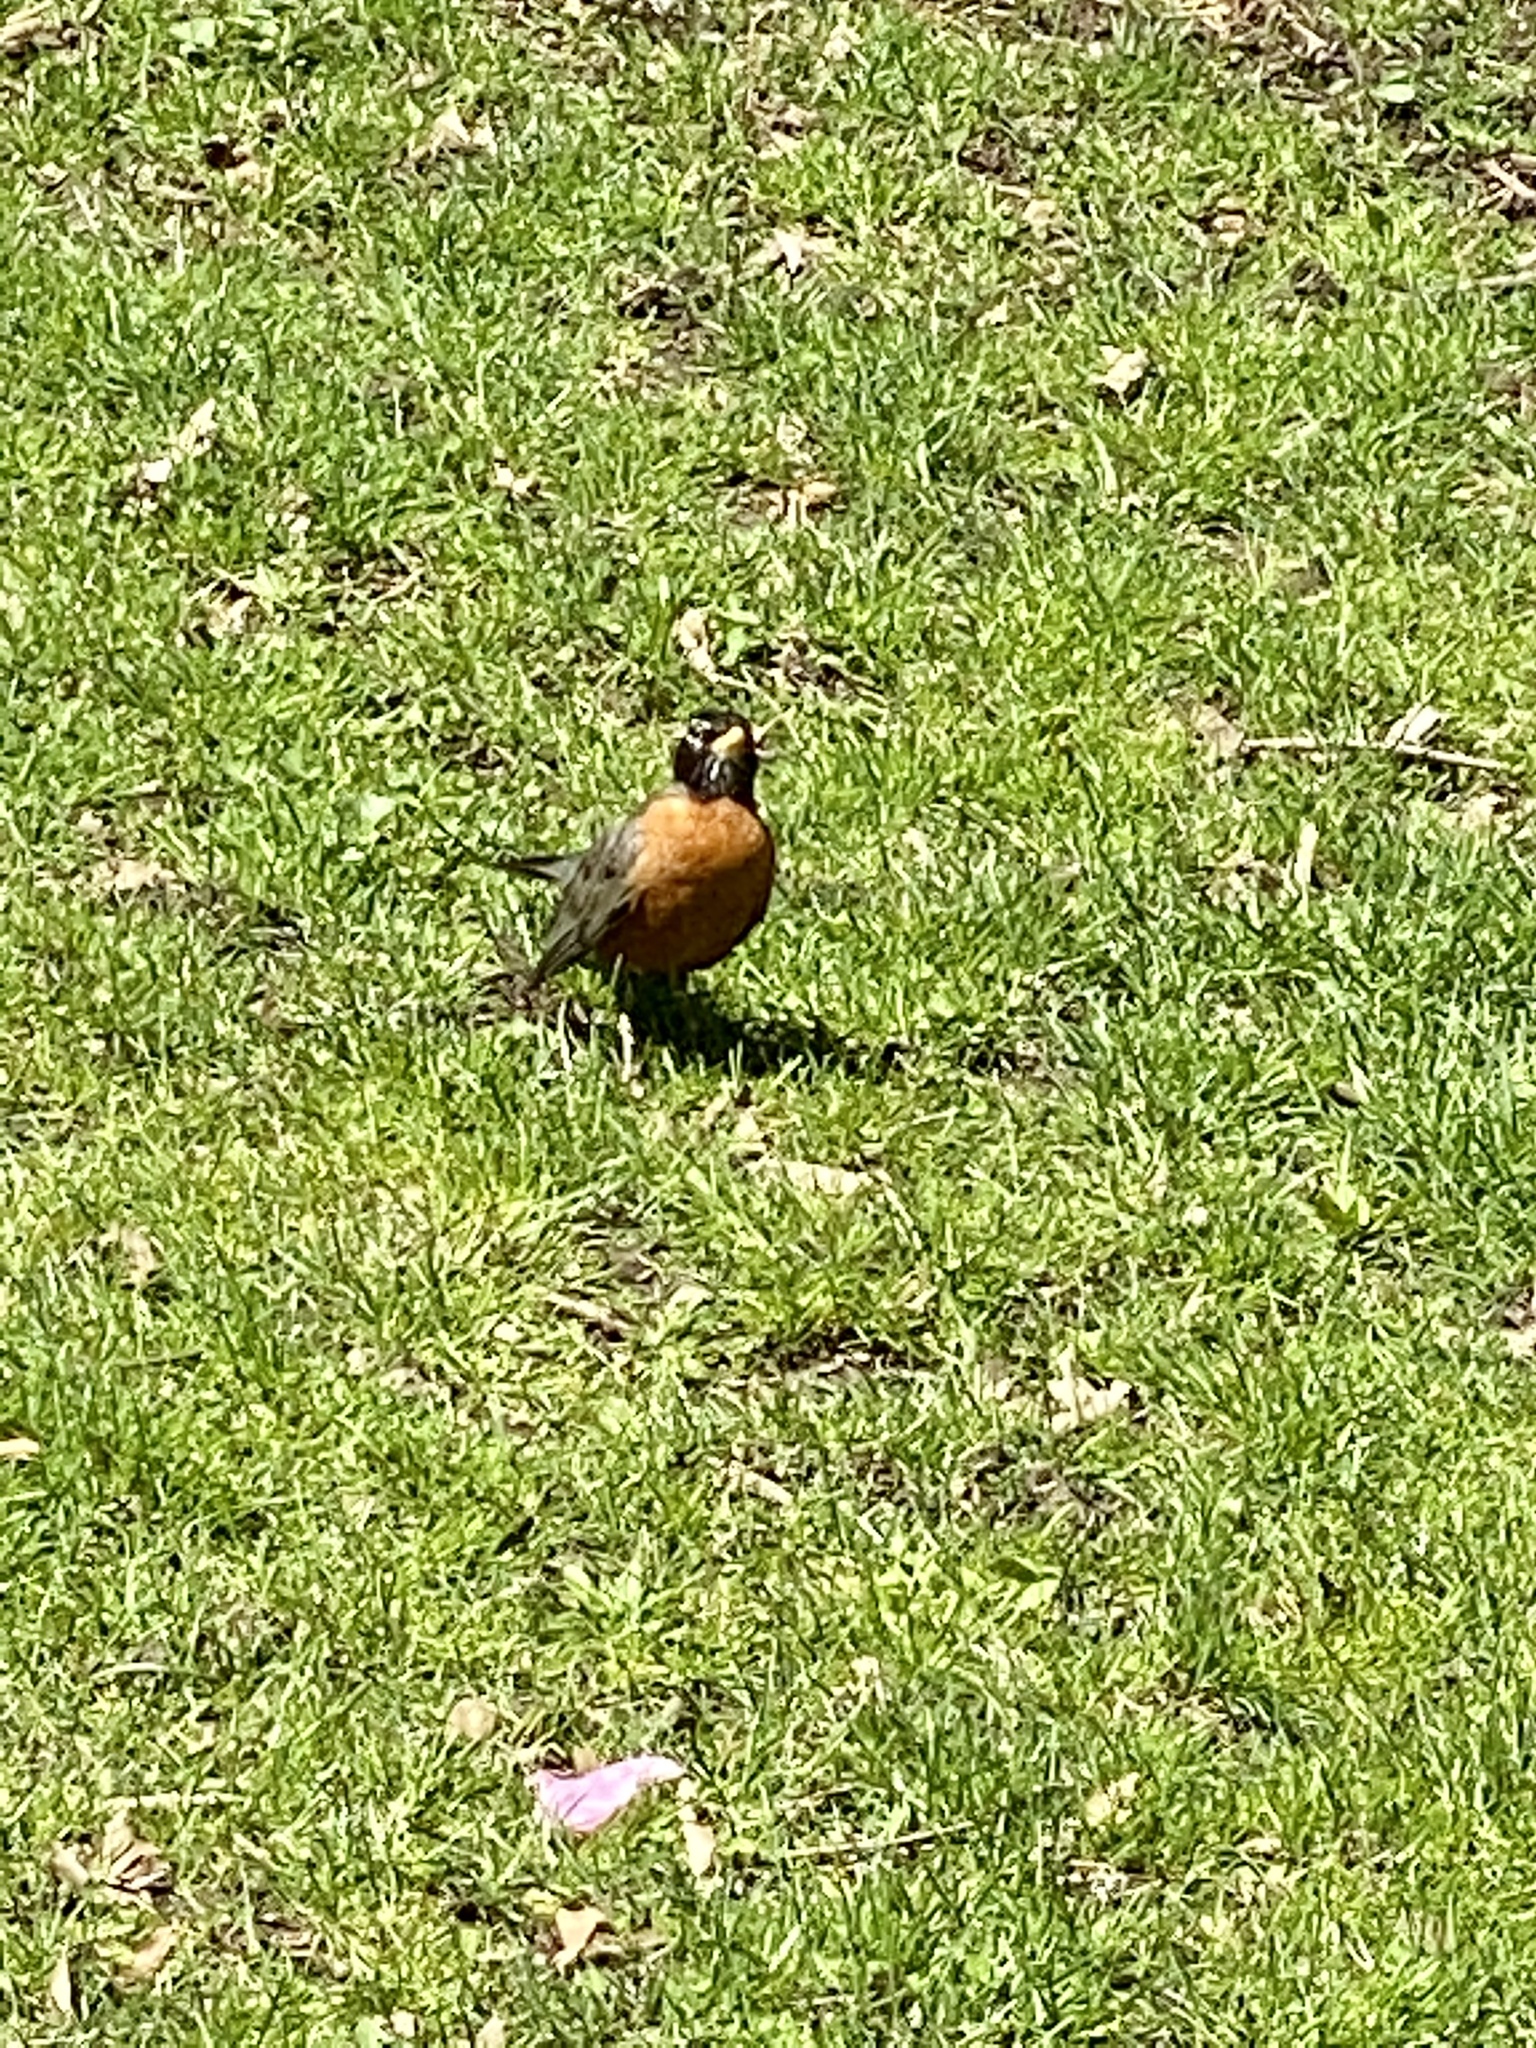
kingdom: Animalia
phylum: Chordata
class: Aves
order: Passeriformes
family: Turdidae
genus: Turdus
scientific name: Turdus migratorius
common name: American robin
